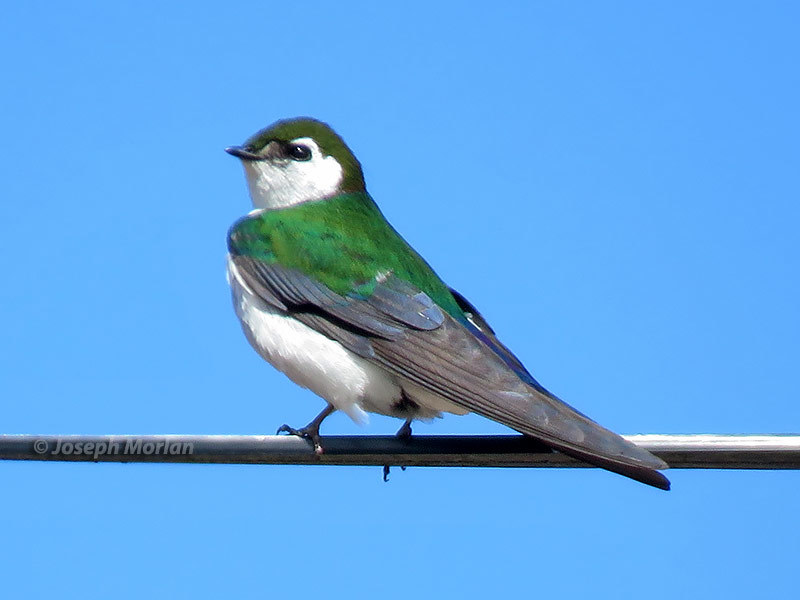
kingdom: Animalia
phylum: Chordata
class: Aves
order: Passeriformes
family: Hirundinidae
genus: Tachycineta
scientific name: Tachycineta thalassina
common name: Violet-green swallow
